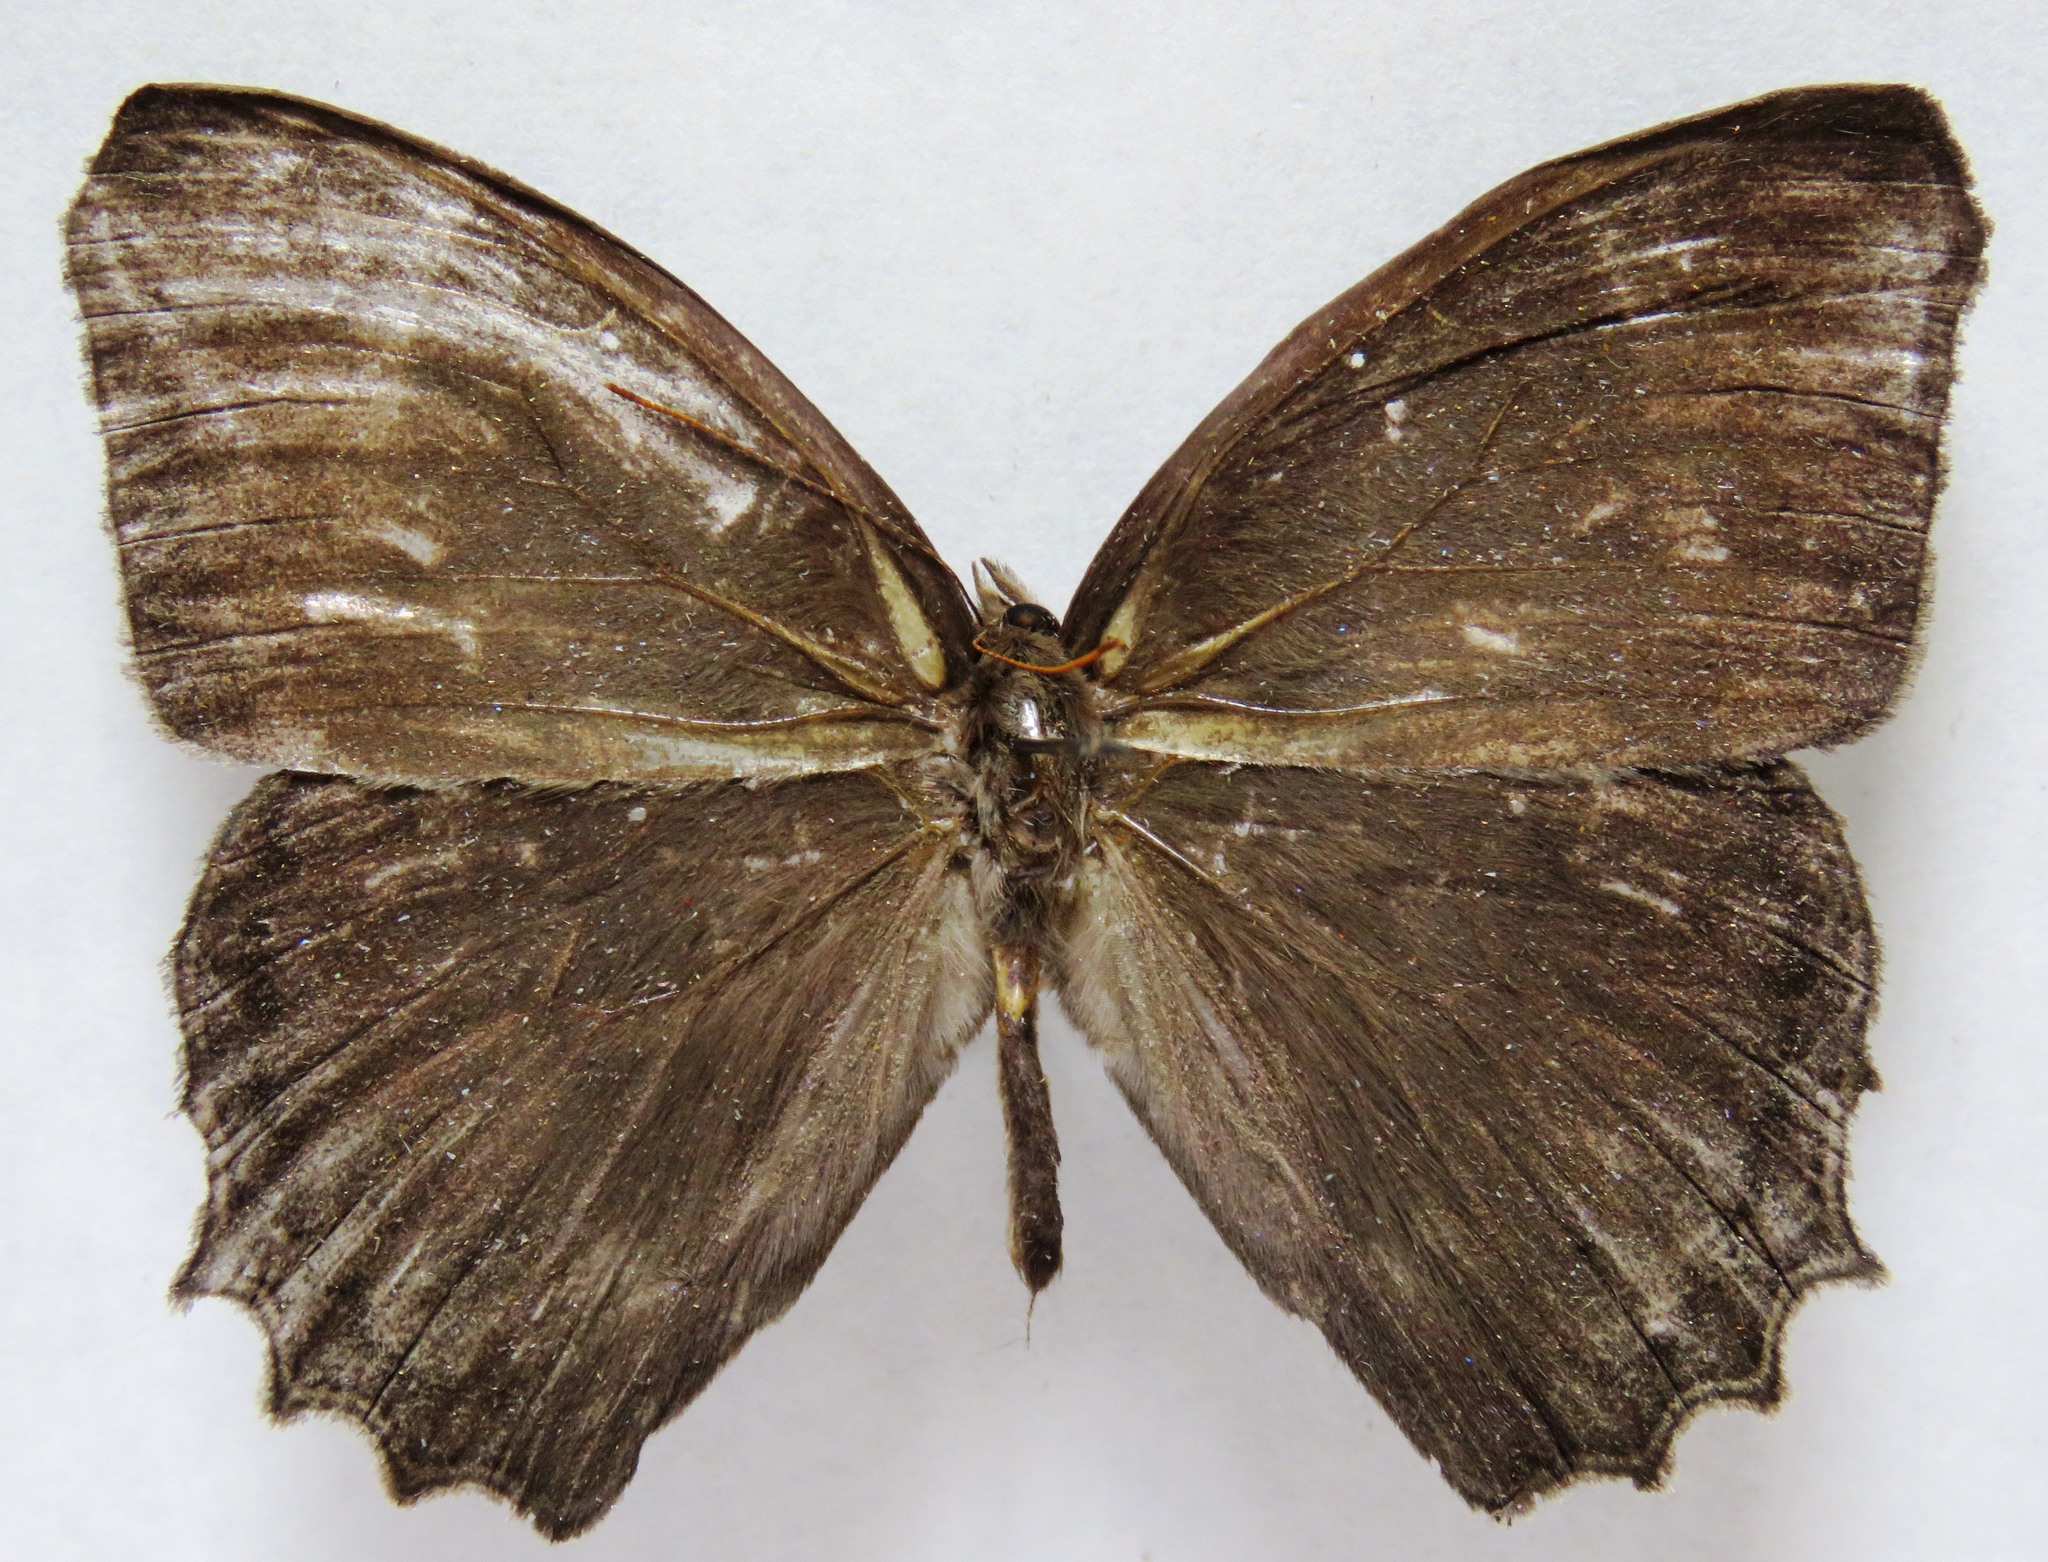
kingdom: Animalia
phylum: Arthropoda
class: Insecta
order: Lepidoptera
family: Nymphalidae
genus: Taygetis
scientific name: Taygetis inconspicua
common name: Inconspicuous satyr
